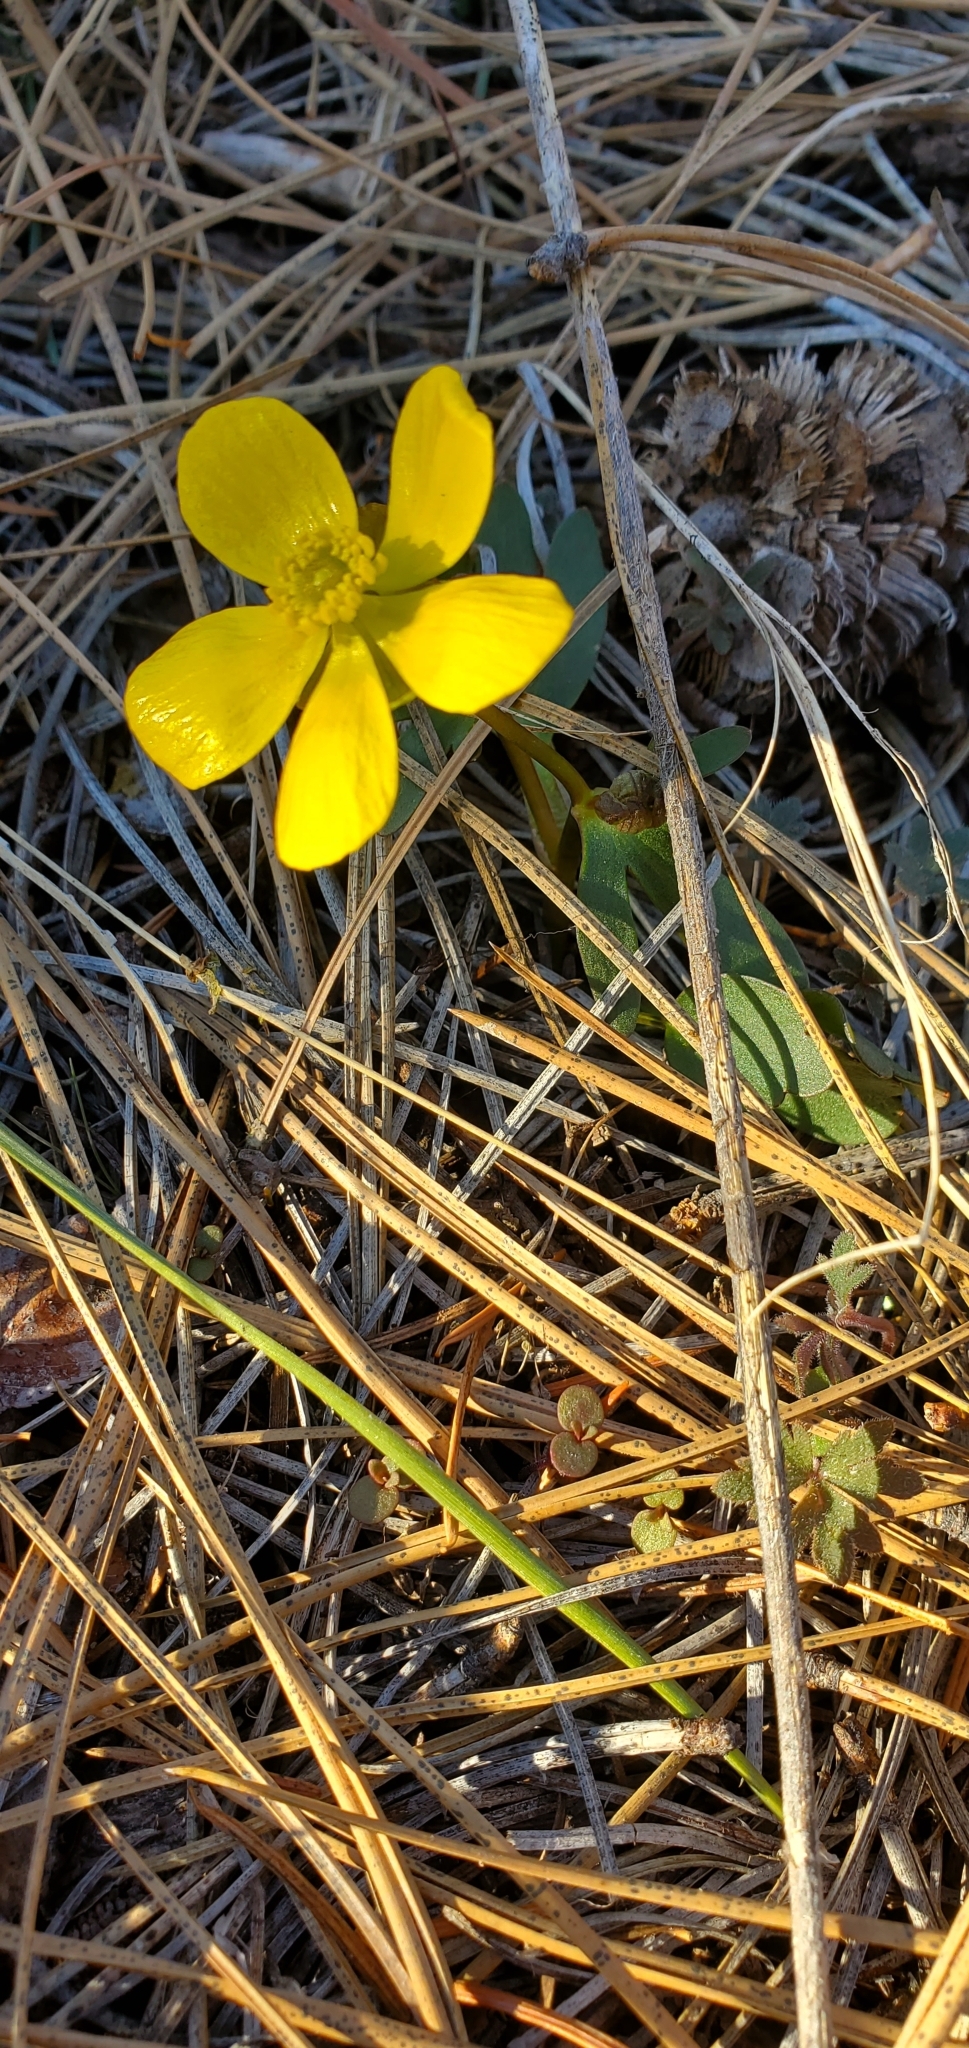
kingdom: Plantae
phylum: Tracheophyta
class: Magnoliopsida
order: Ranunculales
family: Ranunculaceae
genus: Ranunculus
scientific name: Ranunculus glaberrimus
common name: Sagebrush buttercup
